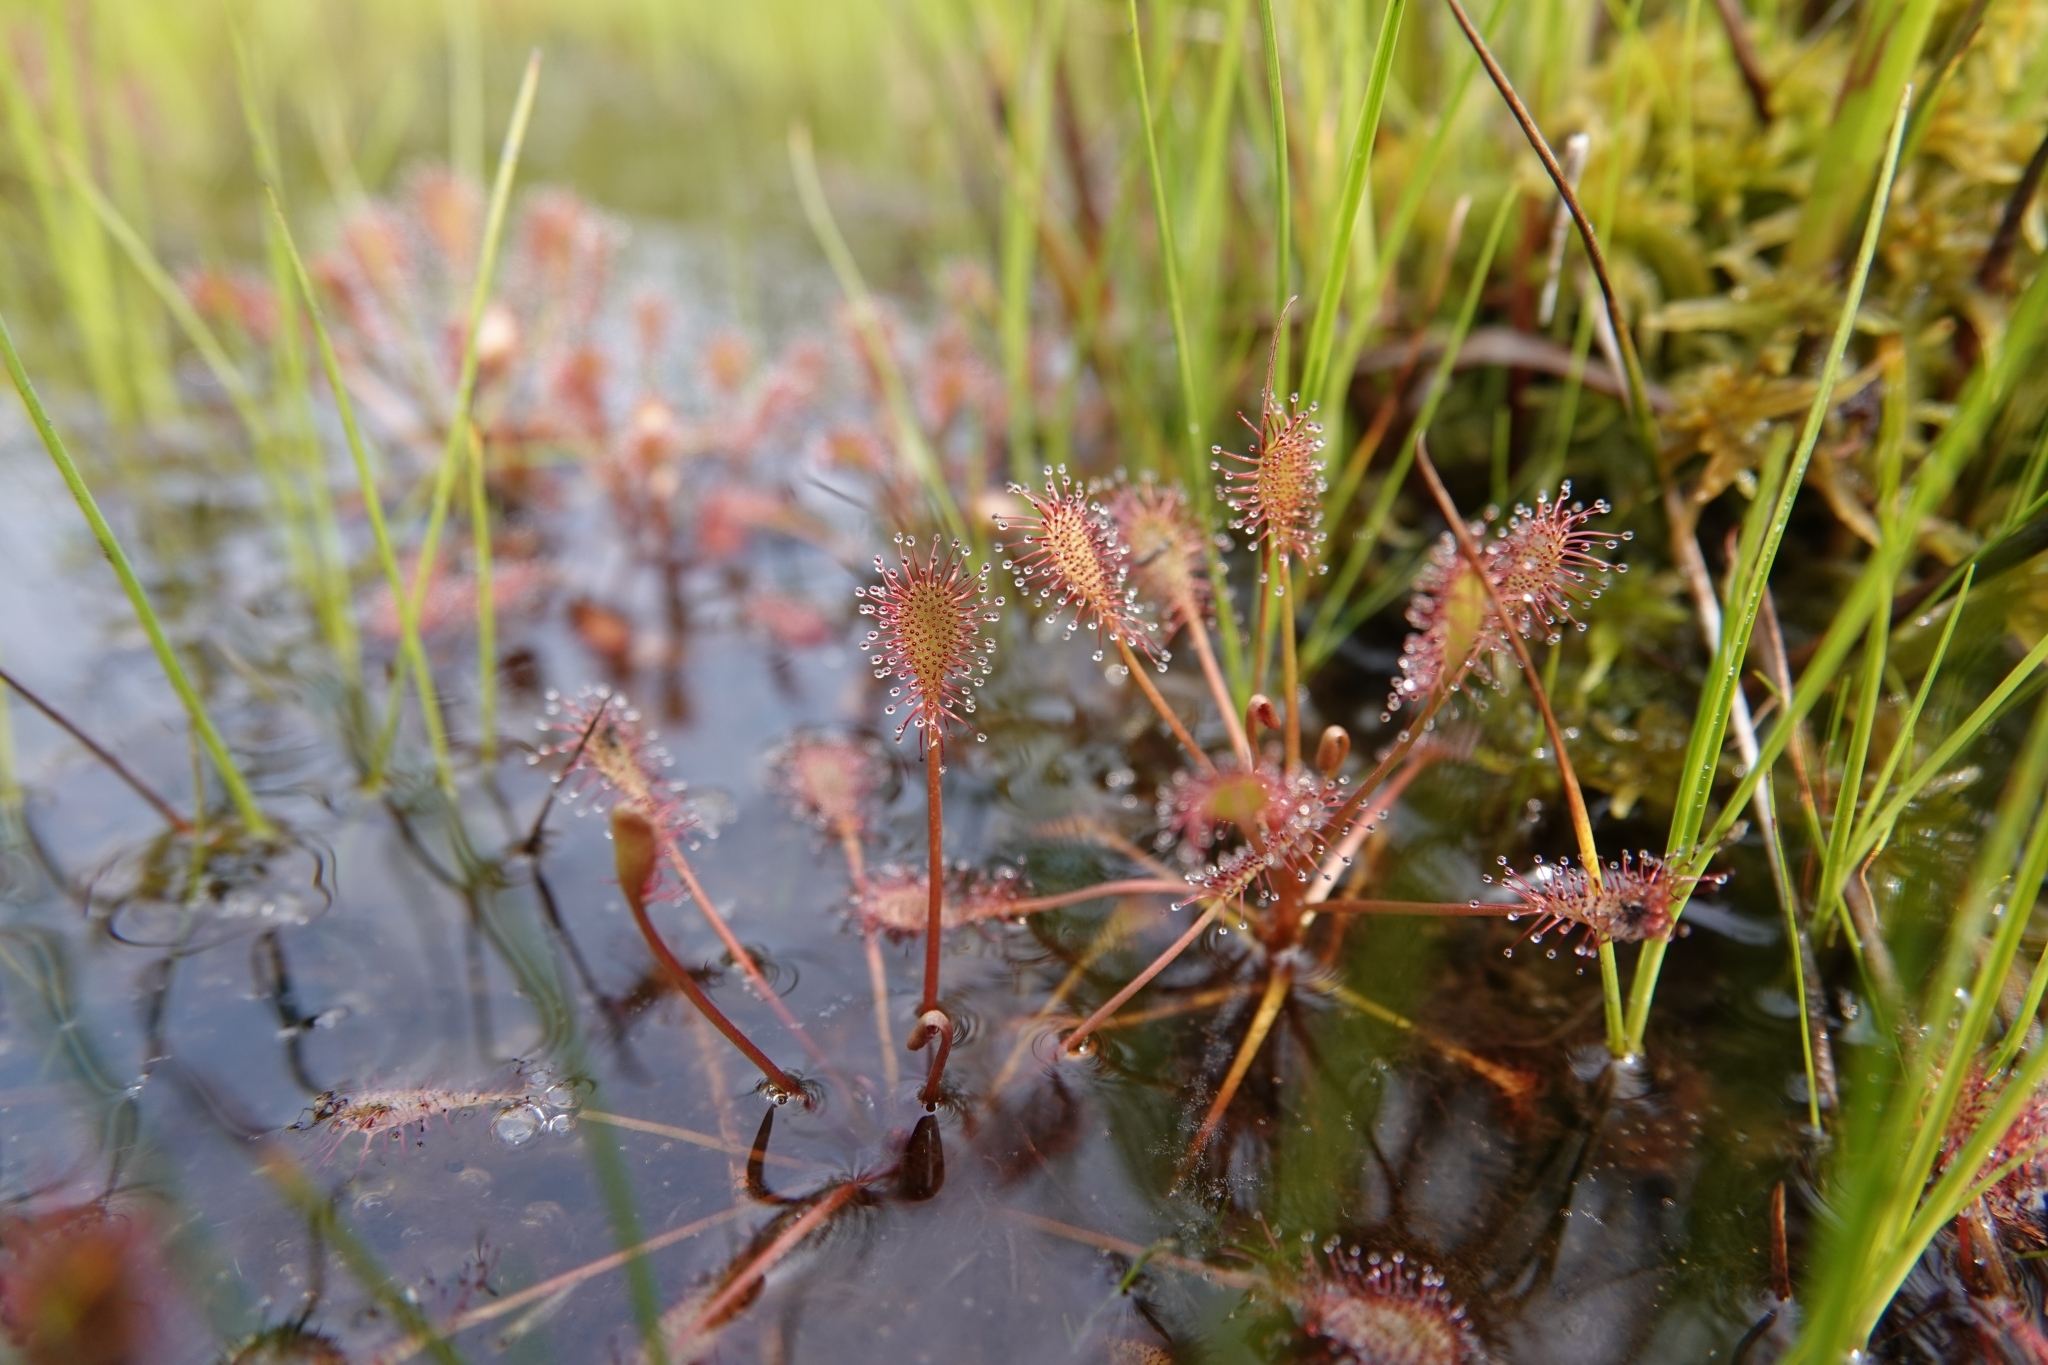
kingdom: Plantae
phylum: Tracheophyta
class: Magnoliopsida
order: Caryophyllales
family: Droseraceae
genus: Drosera
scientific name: Drosera intermedia
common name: Oblong-leaved sundew
